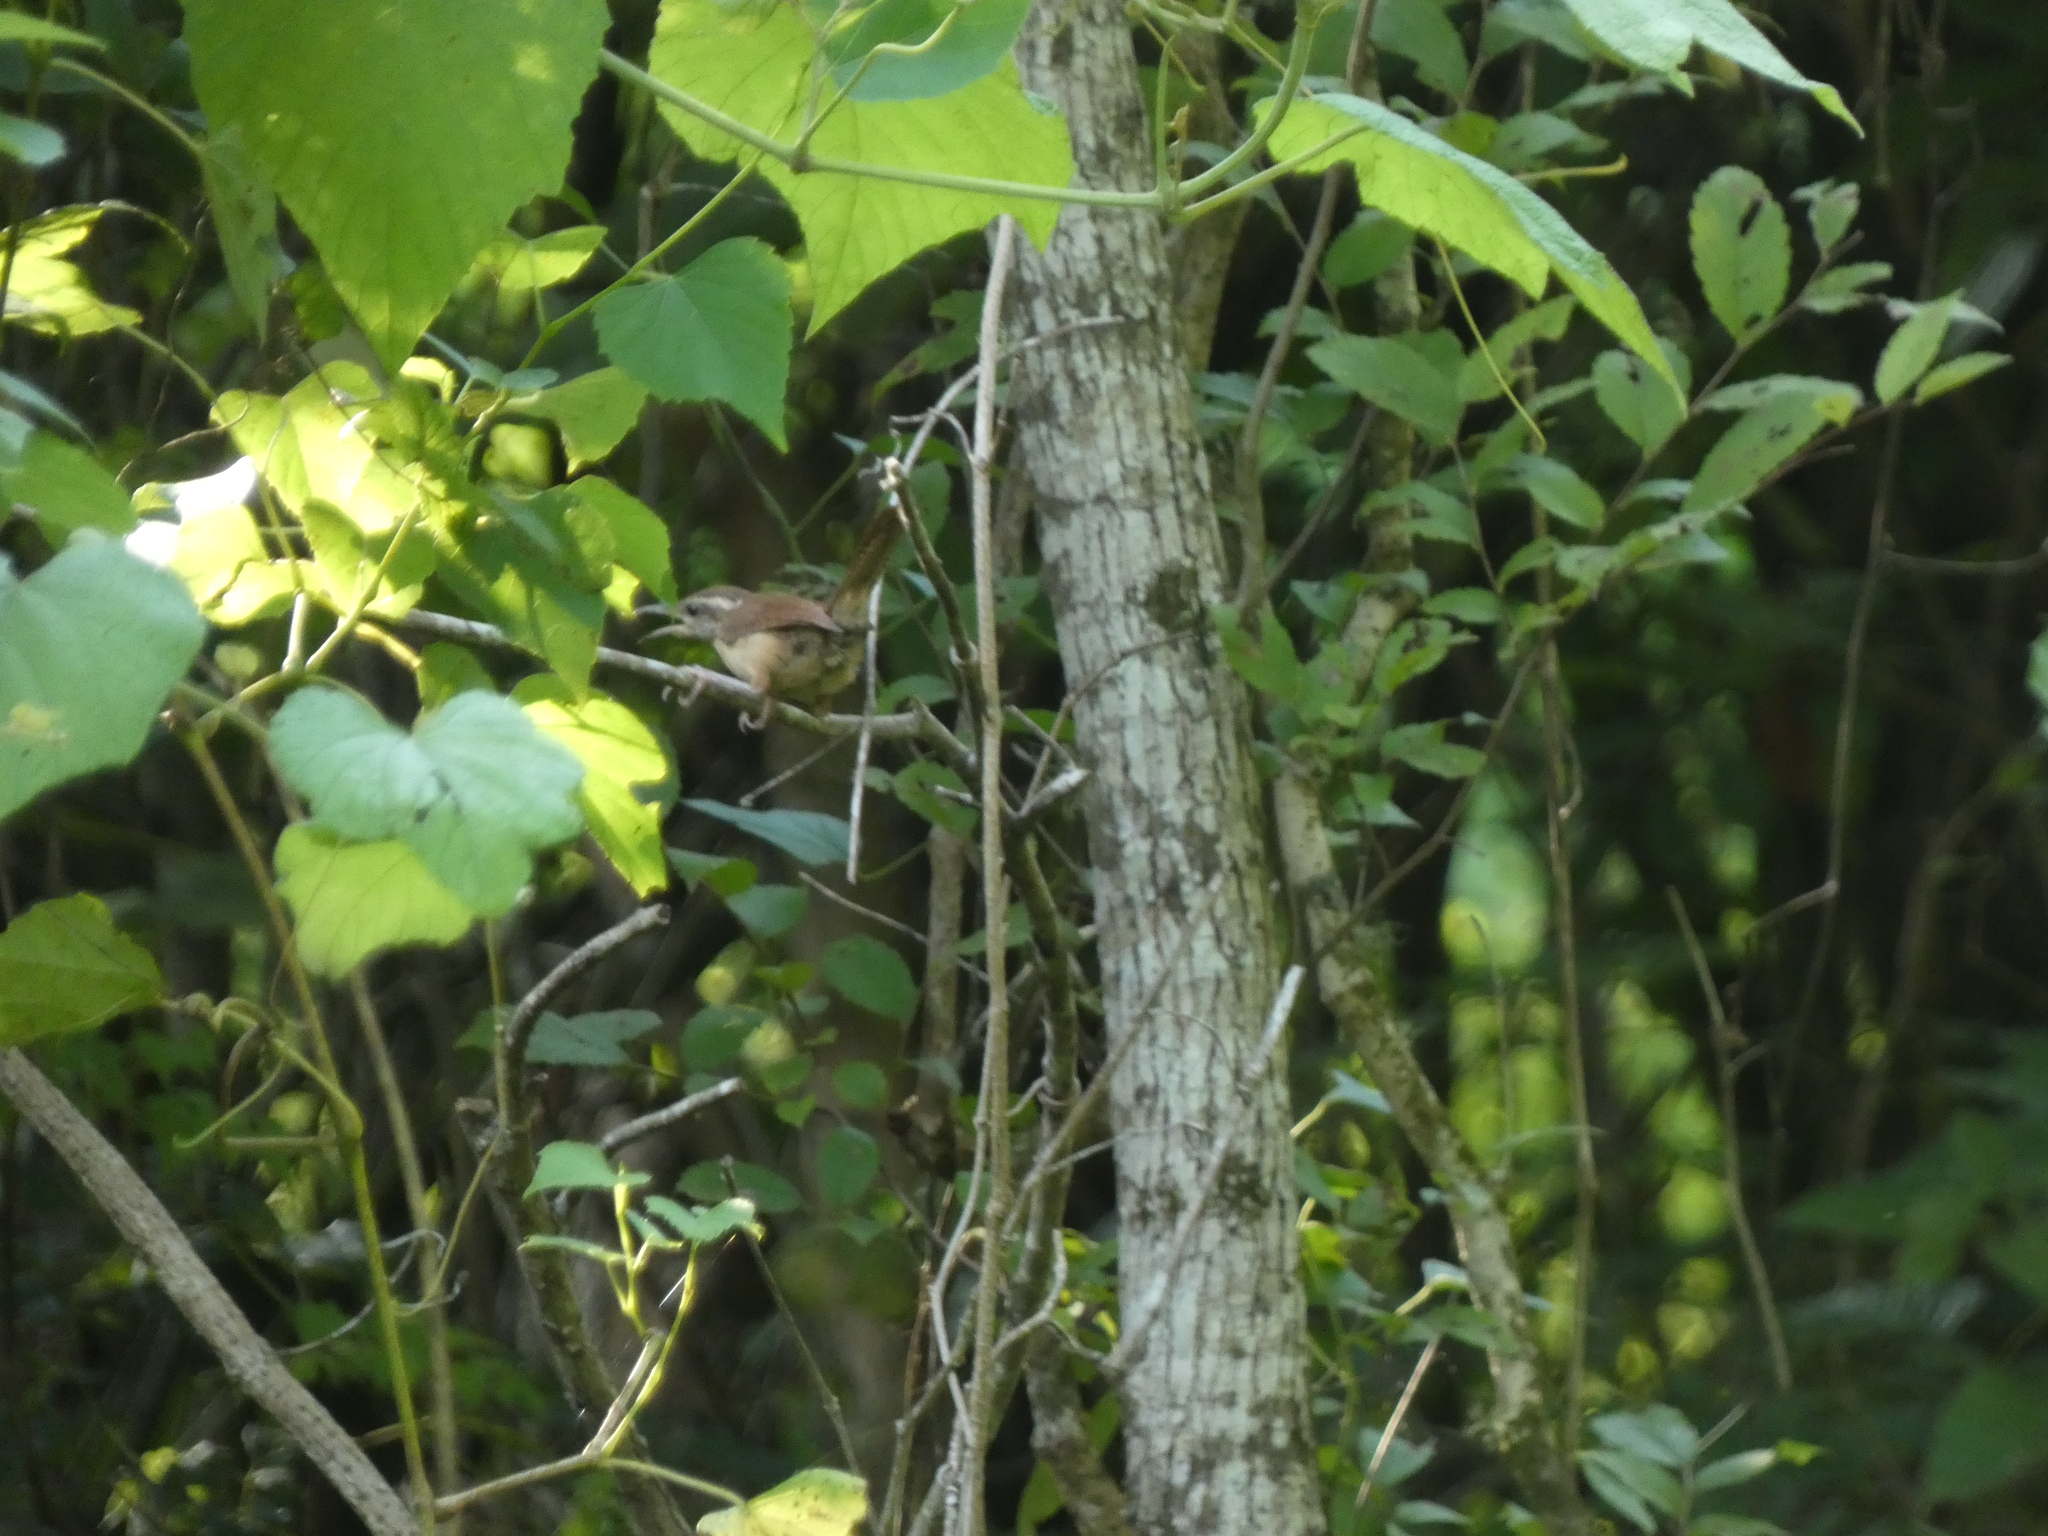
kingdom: Animalia
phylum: Chordata
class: Aves
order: Passeriformes
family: Troglodytidae
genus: Thryothorus
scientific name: Thryothorus ludovicianus
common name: Carolina wren
